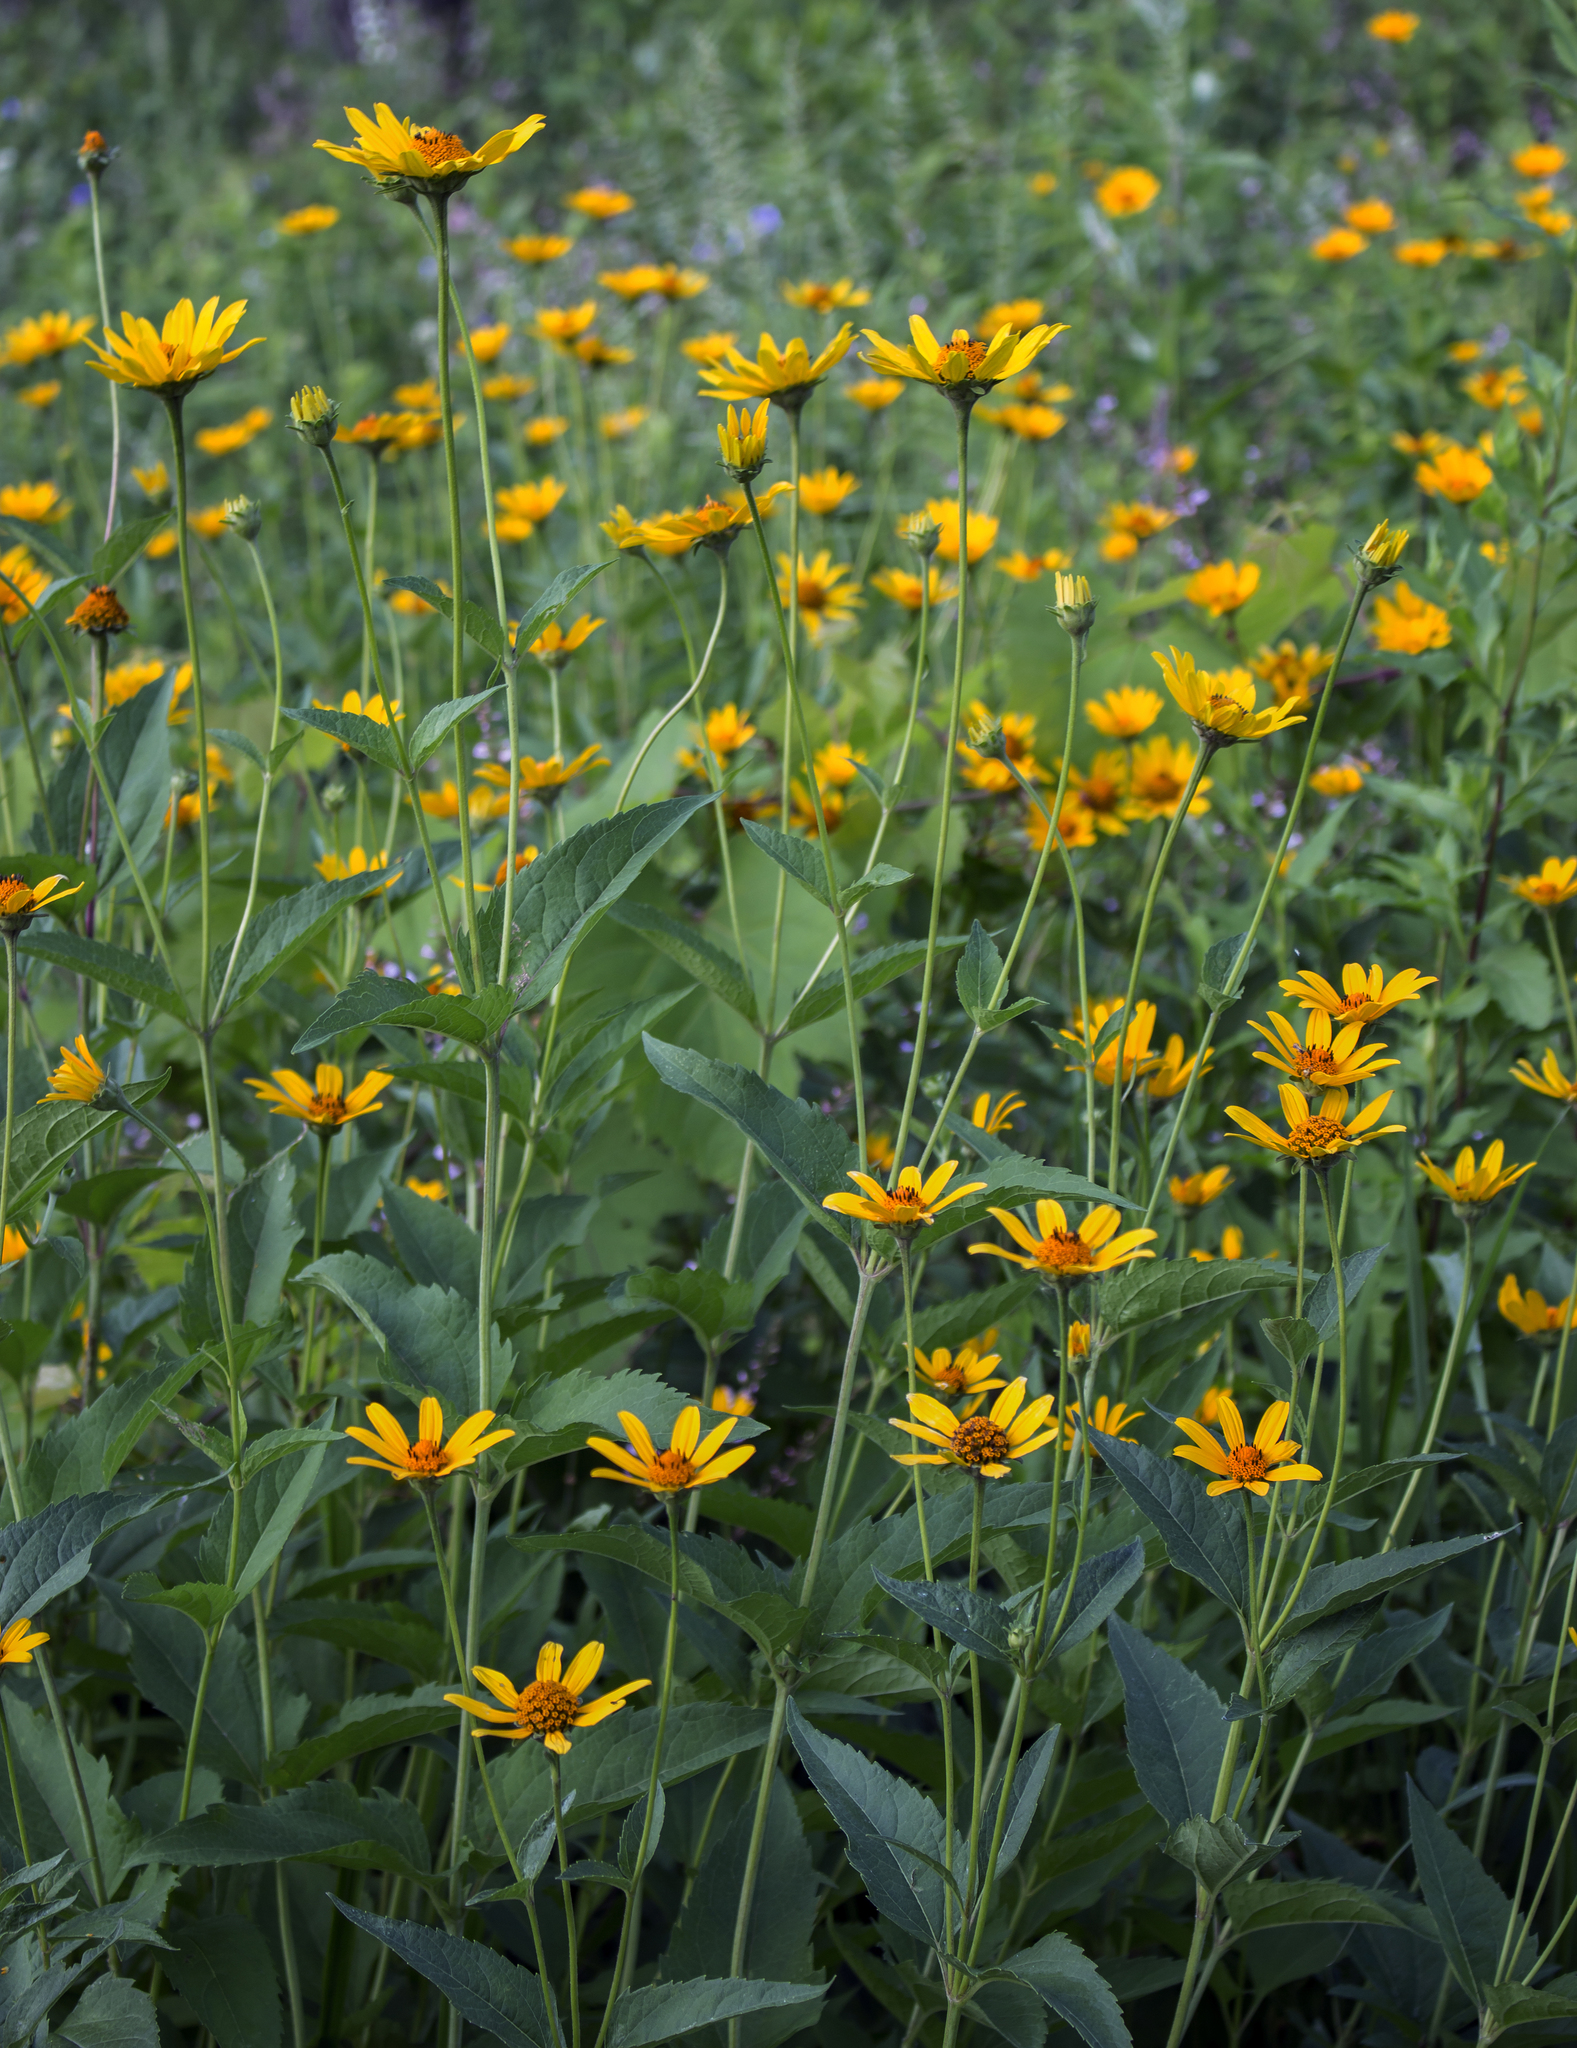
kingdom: Plantae
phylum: Tracheophyta
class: Magnoliopsida
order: Asterales
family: Asteraceae
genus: Heliopsis
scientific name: Heliopsis helianthoides
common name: False sunflower
